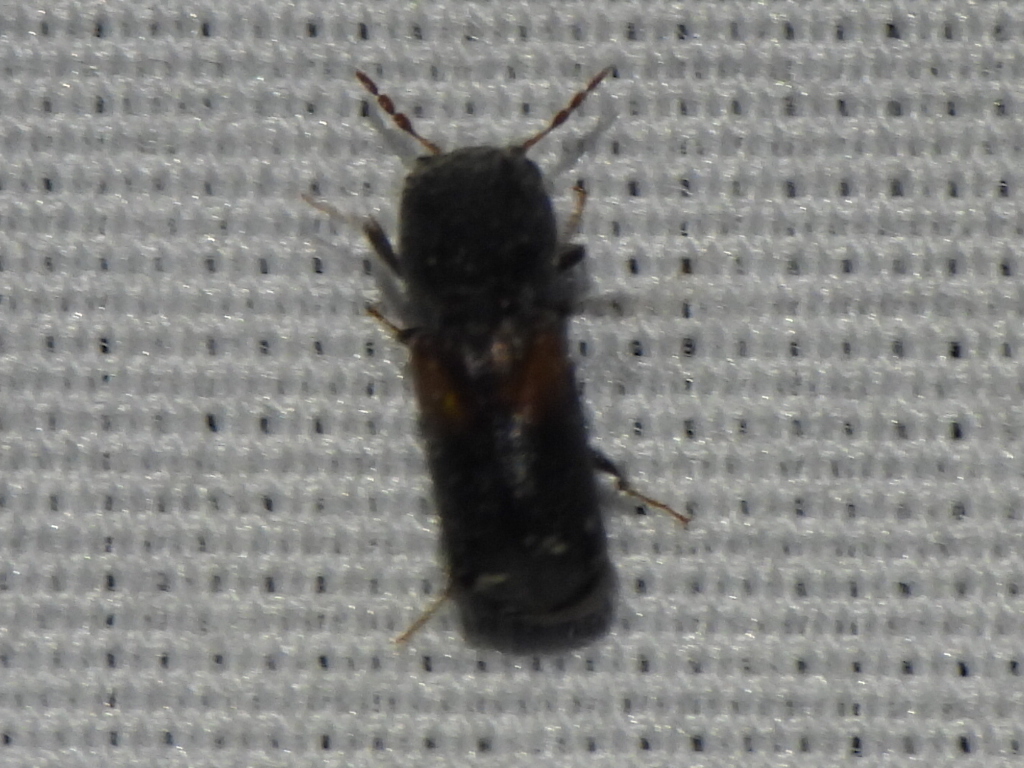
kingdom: Animalia
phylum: Arthropoda
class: Insecta
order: Coleoptera
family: Bostrichidae
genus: Xylobiops
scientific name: Xylobiops basilaris
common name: Red-shouldered bostrichid
